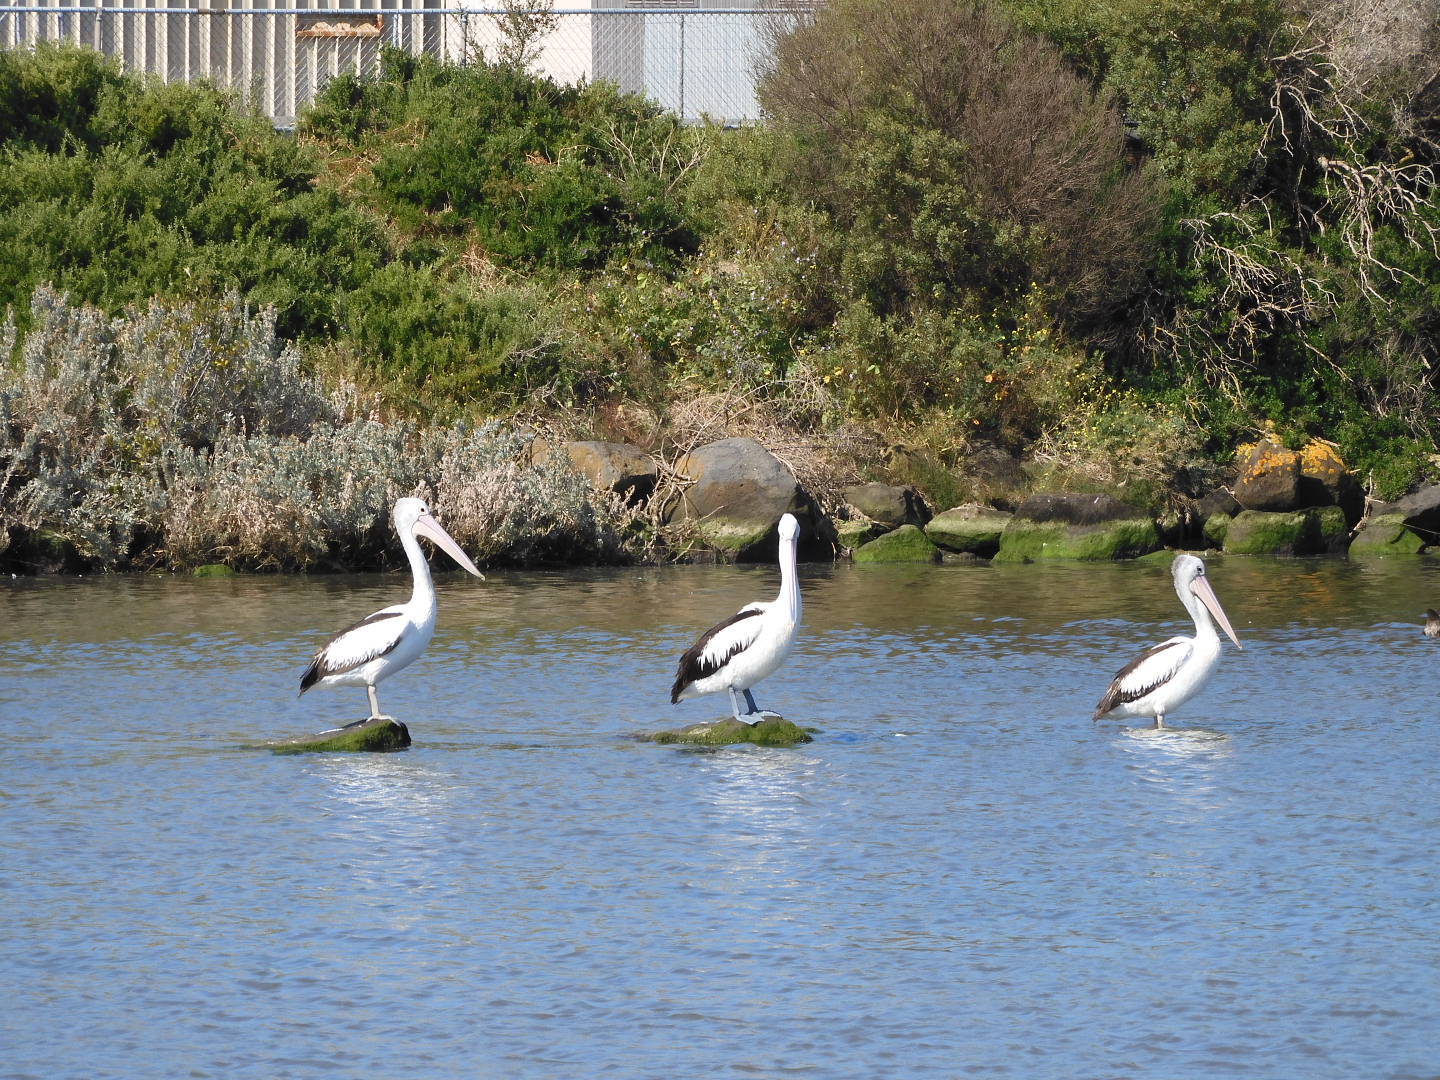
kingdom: Animalia
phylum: Chordata
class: Aves
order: Pelecaniformes
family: Pelecanidae
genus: Pelecanus
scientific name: Pelecanus conspicillatus
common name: Australian pelican
